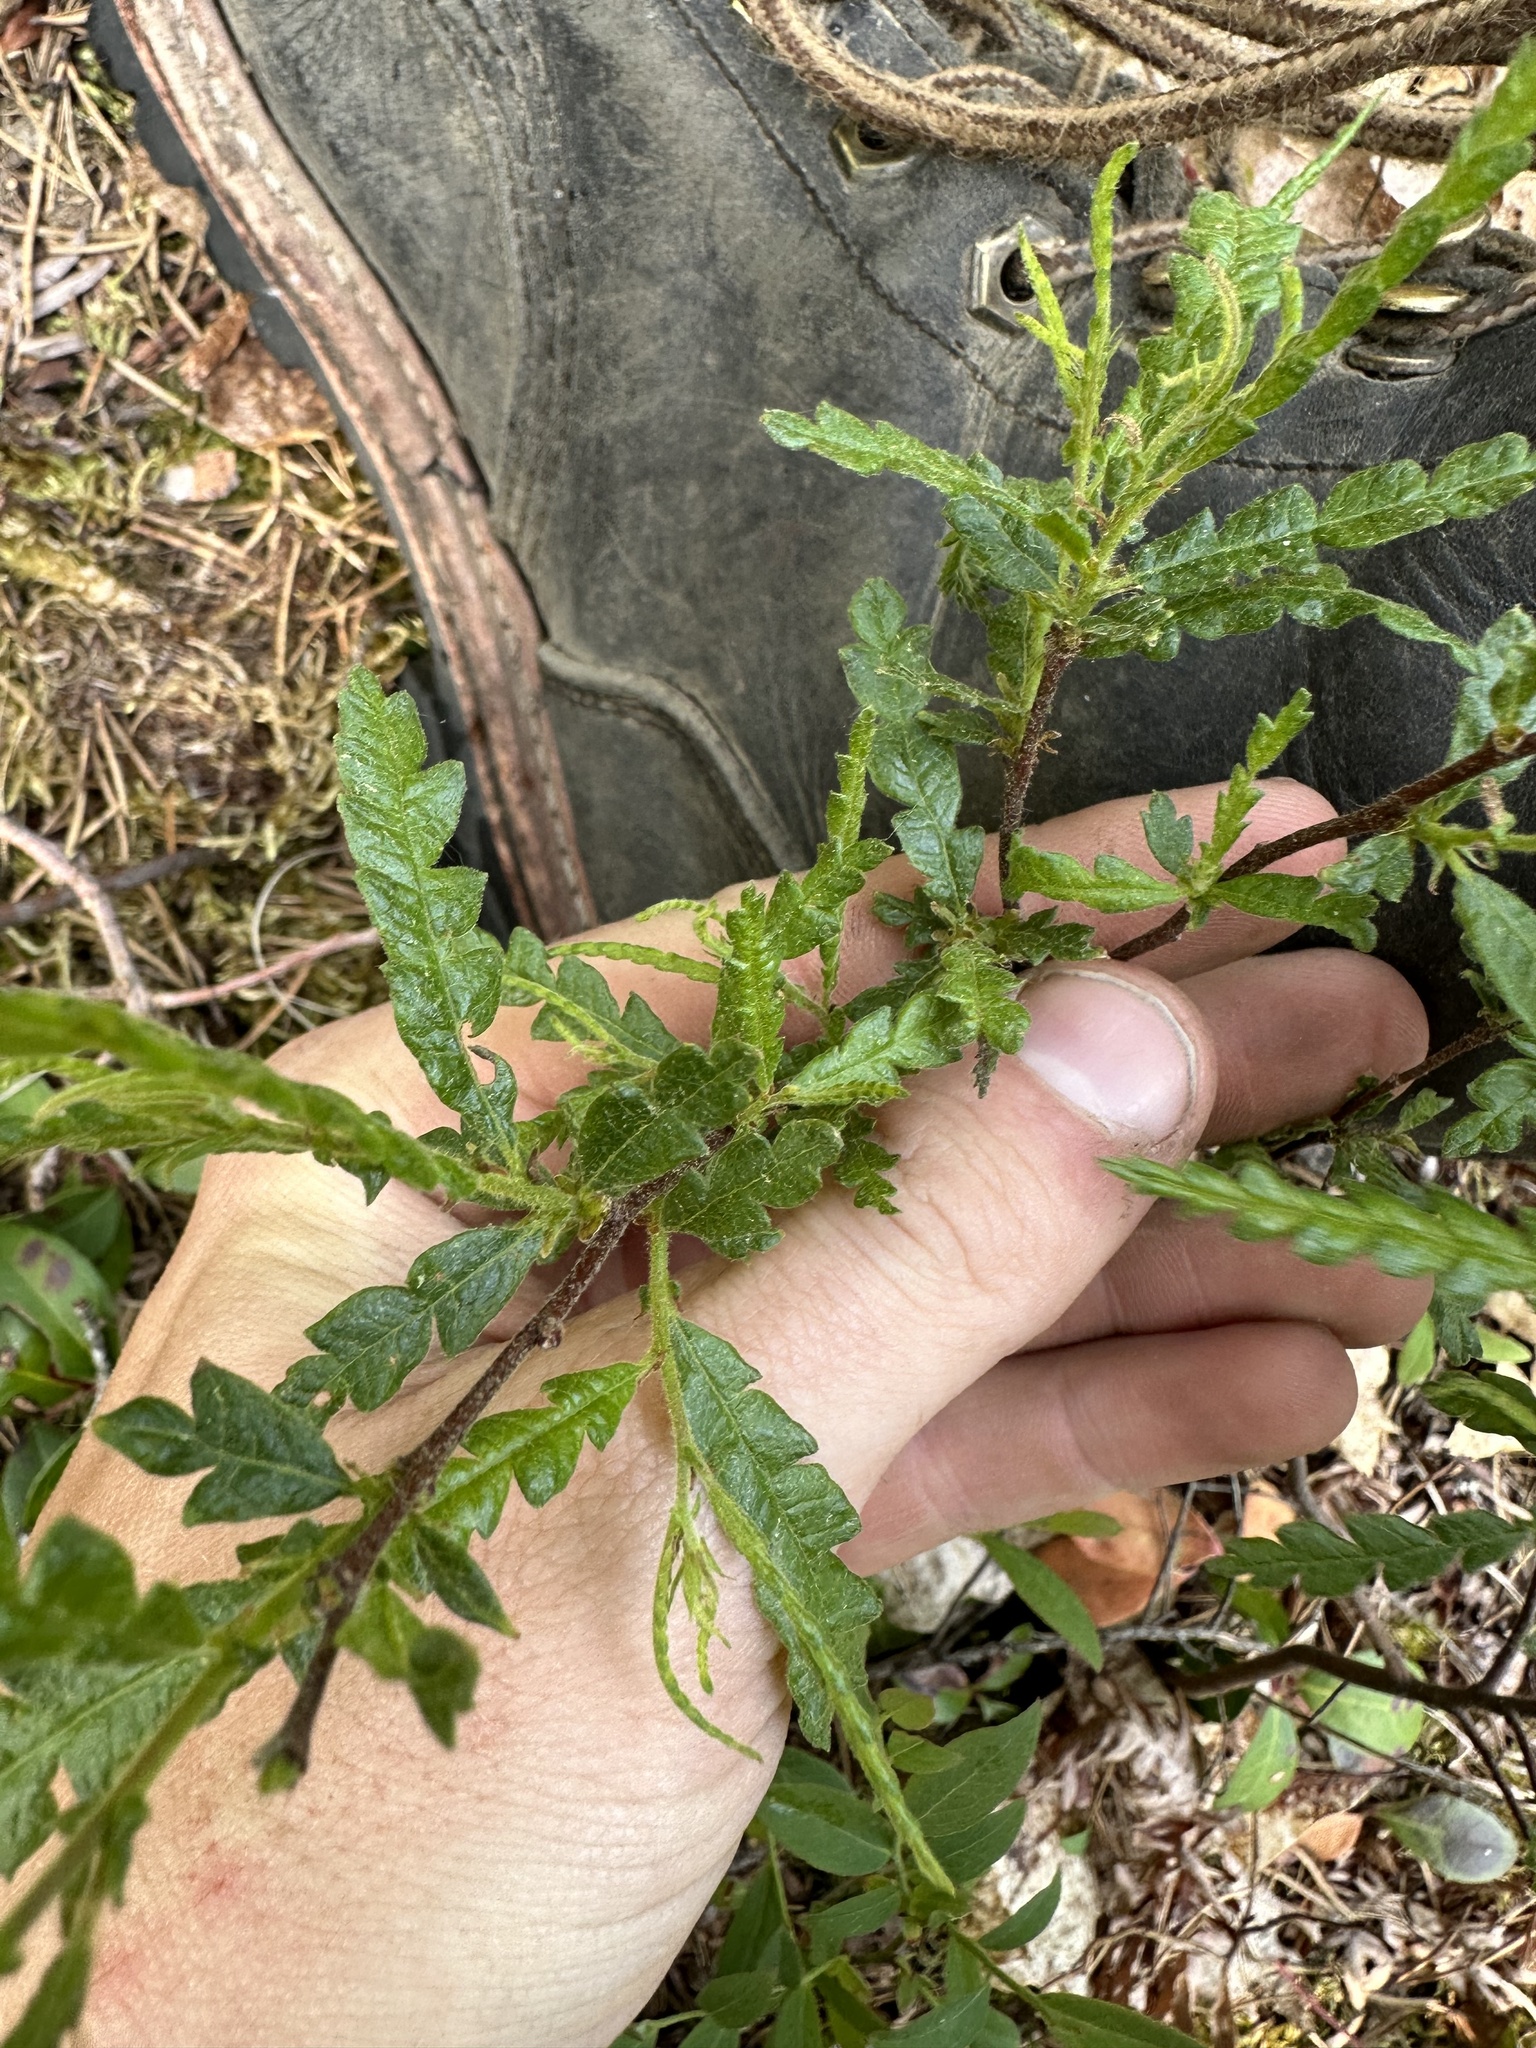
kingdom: Plantae
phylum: Tracheophyta
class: Magnoliopsida
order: Fagales
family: Myricaceae
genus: Comptonia
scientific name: Comptonia peregrina
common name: Sweet-fern
